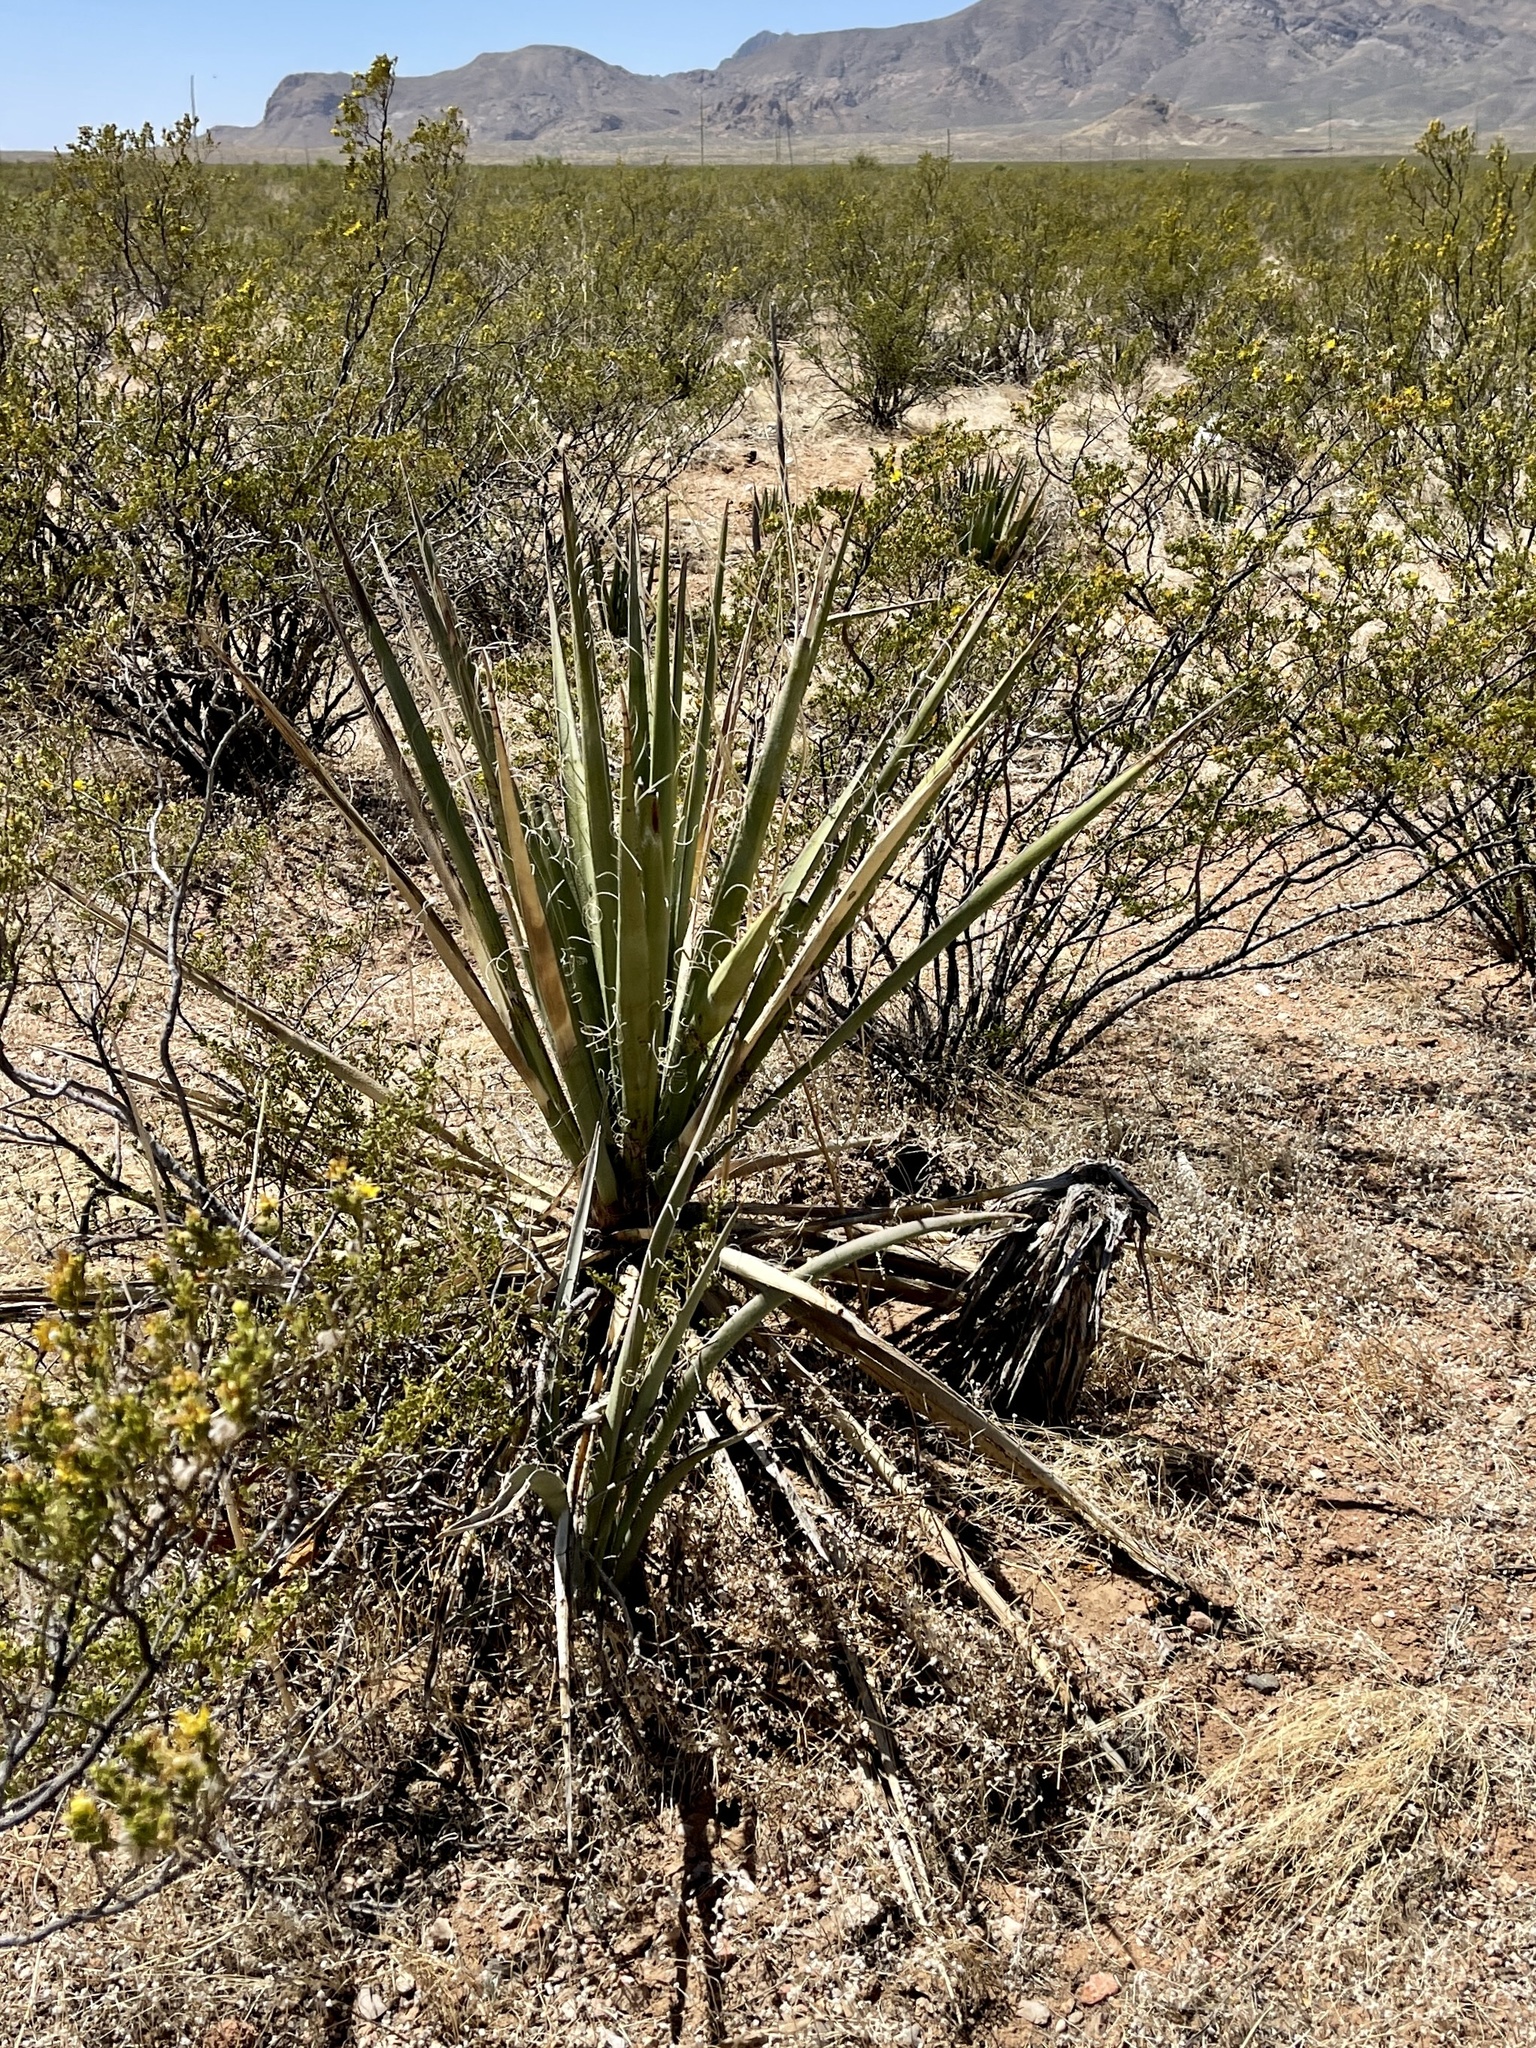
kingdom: Plantae
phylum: Tracheophyta
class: Liliopsida
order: Asparagales
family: Asparagaceae
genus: Yucca
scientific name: Yucca baccata
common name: Banana yucca
